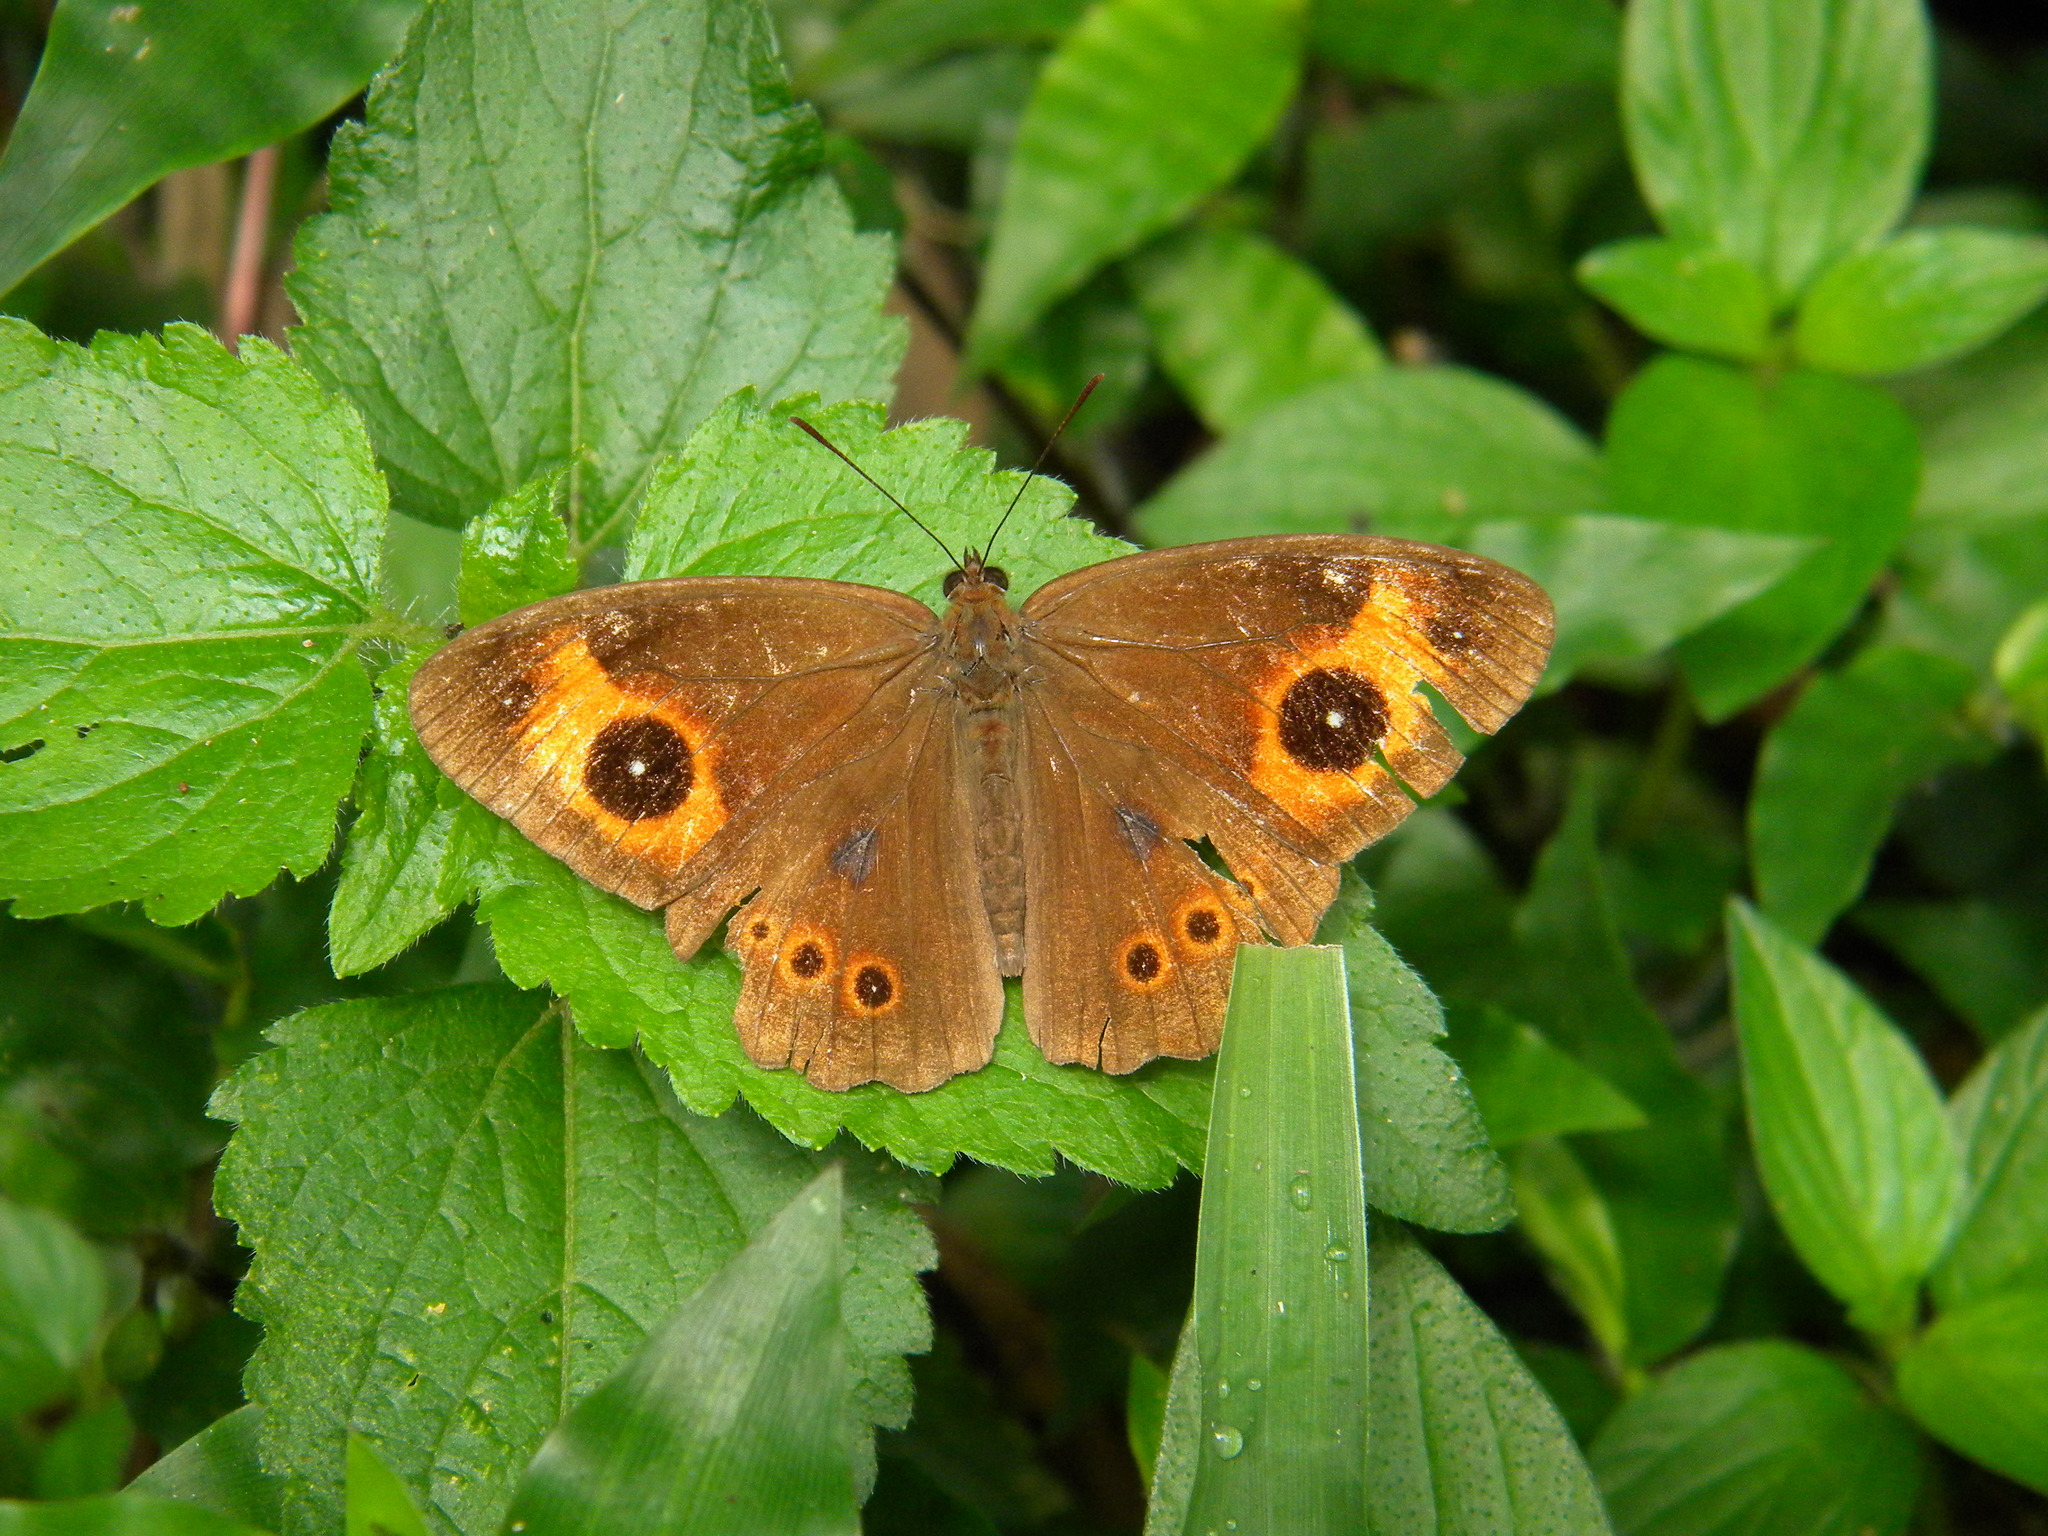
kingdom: Animalia
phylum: Arthropoda
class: Insecta
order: Lepidoptera
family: Nymphalidae
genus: Mycalesis
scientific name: Mycalesis Telinga oculus
